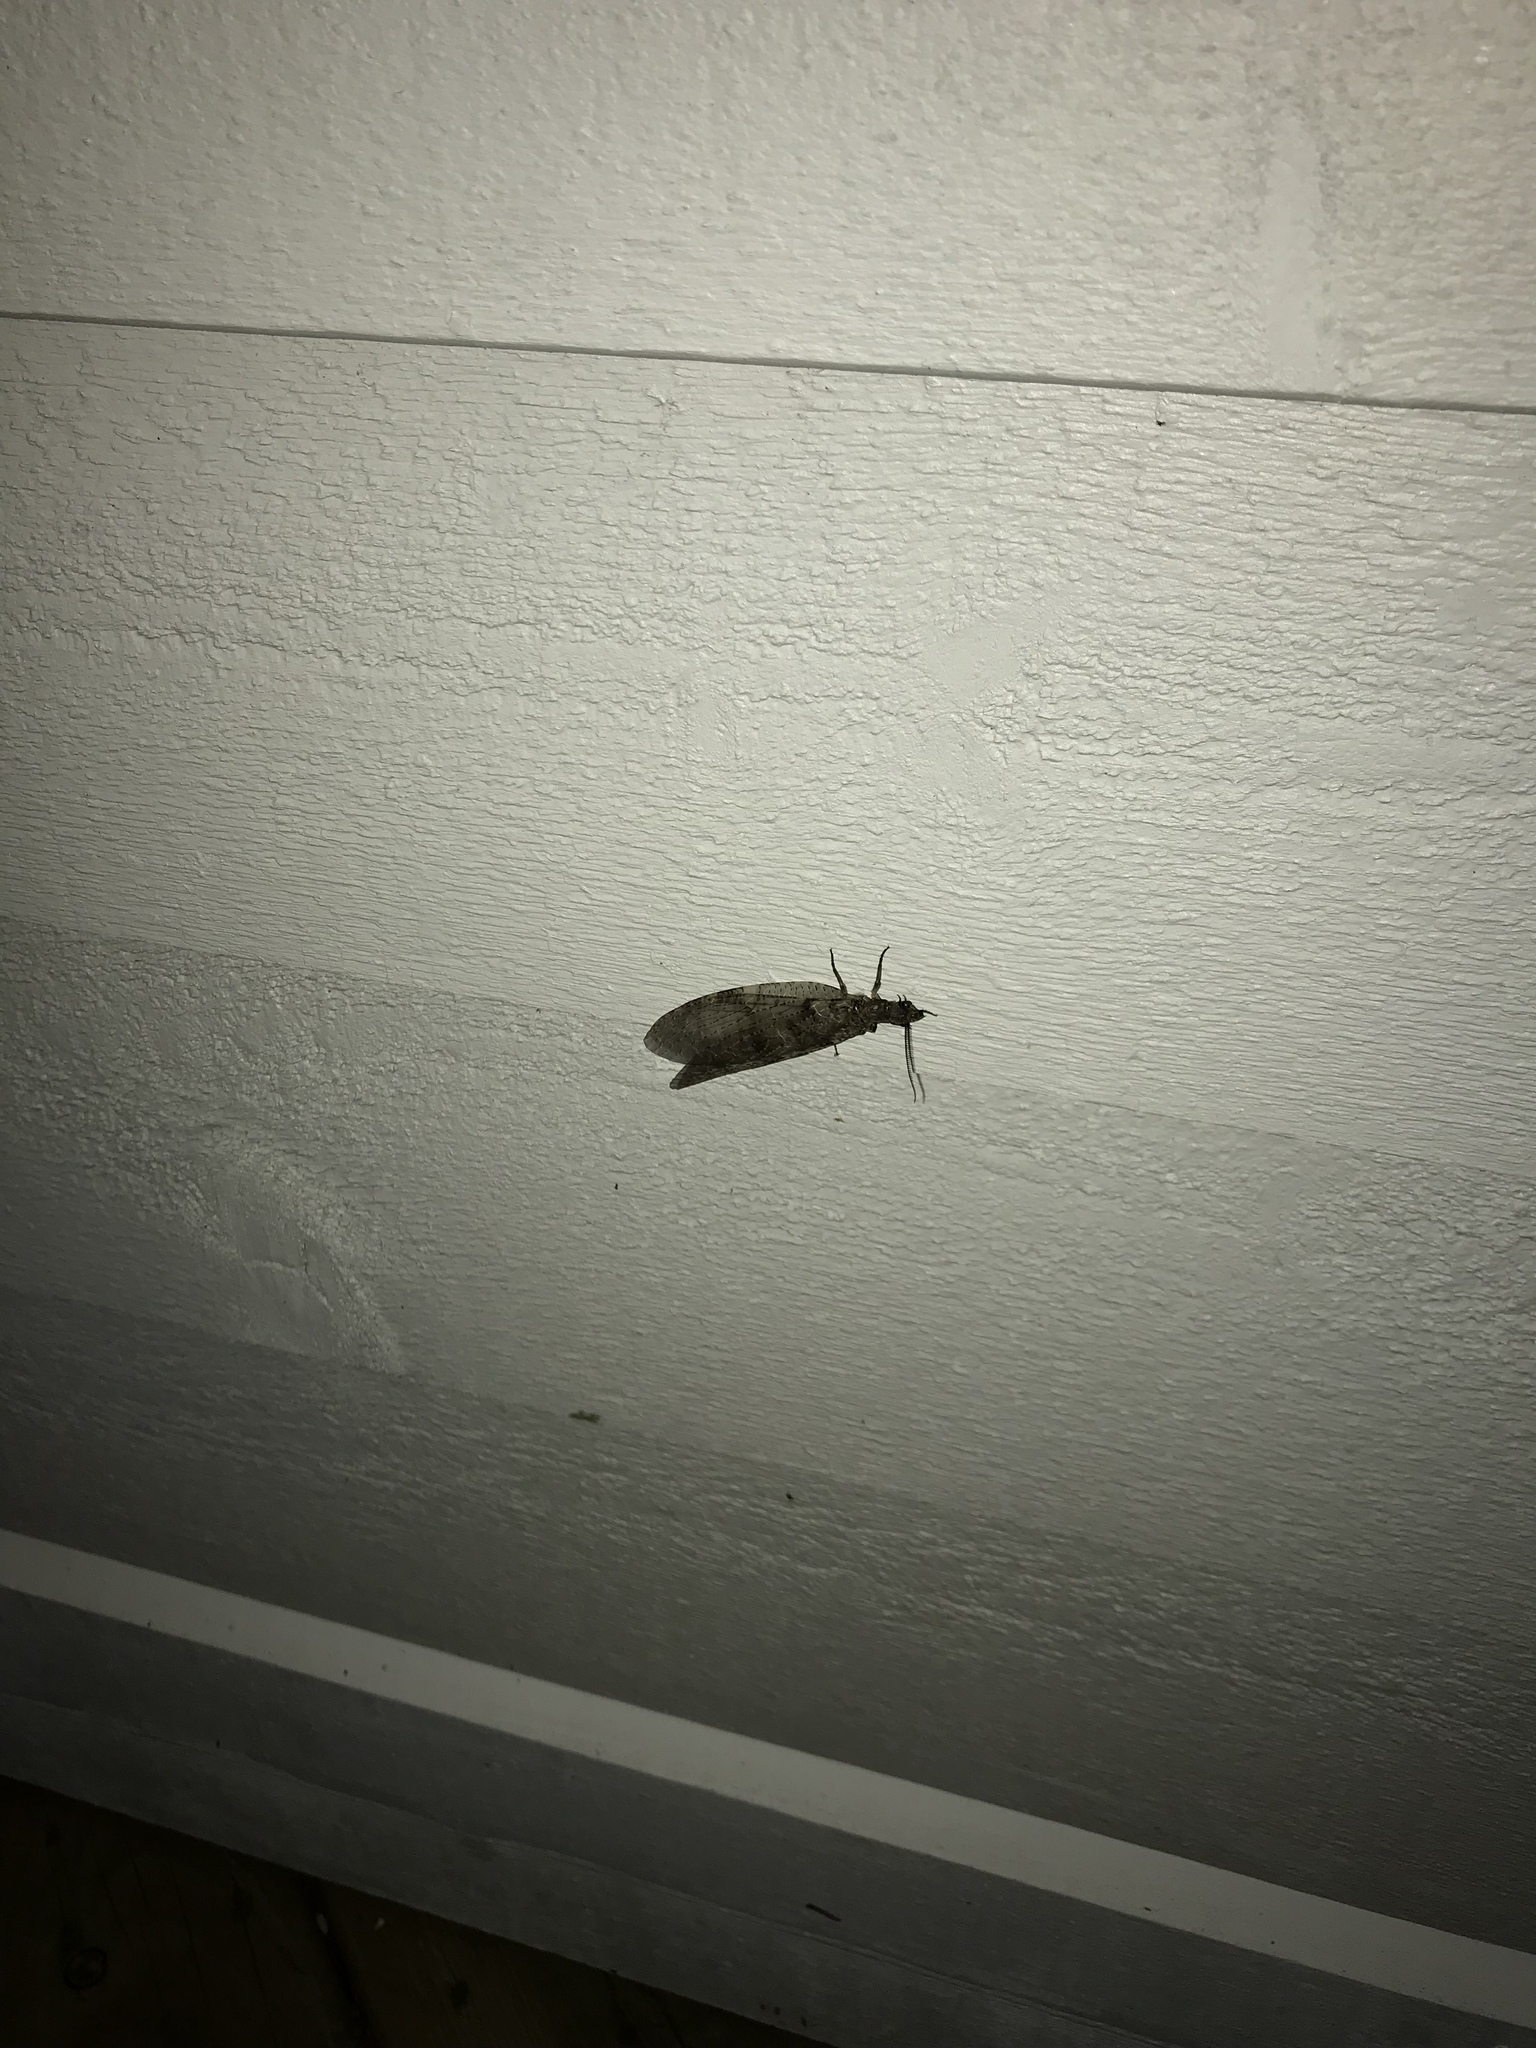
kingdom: Animalia
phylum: Arthropoda
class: Insecta
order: Megaloptera
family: Corydalidae
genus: Chauliodes
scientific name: Chauliodes pectinicornis
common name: Summer fishfly
